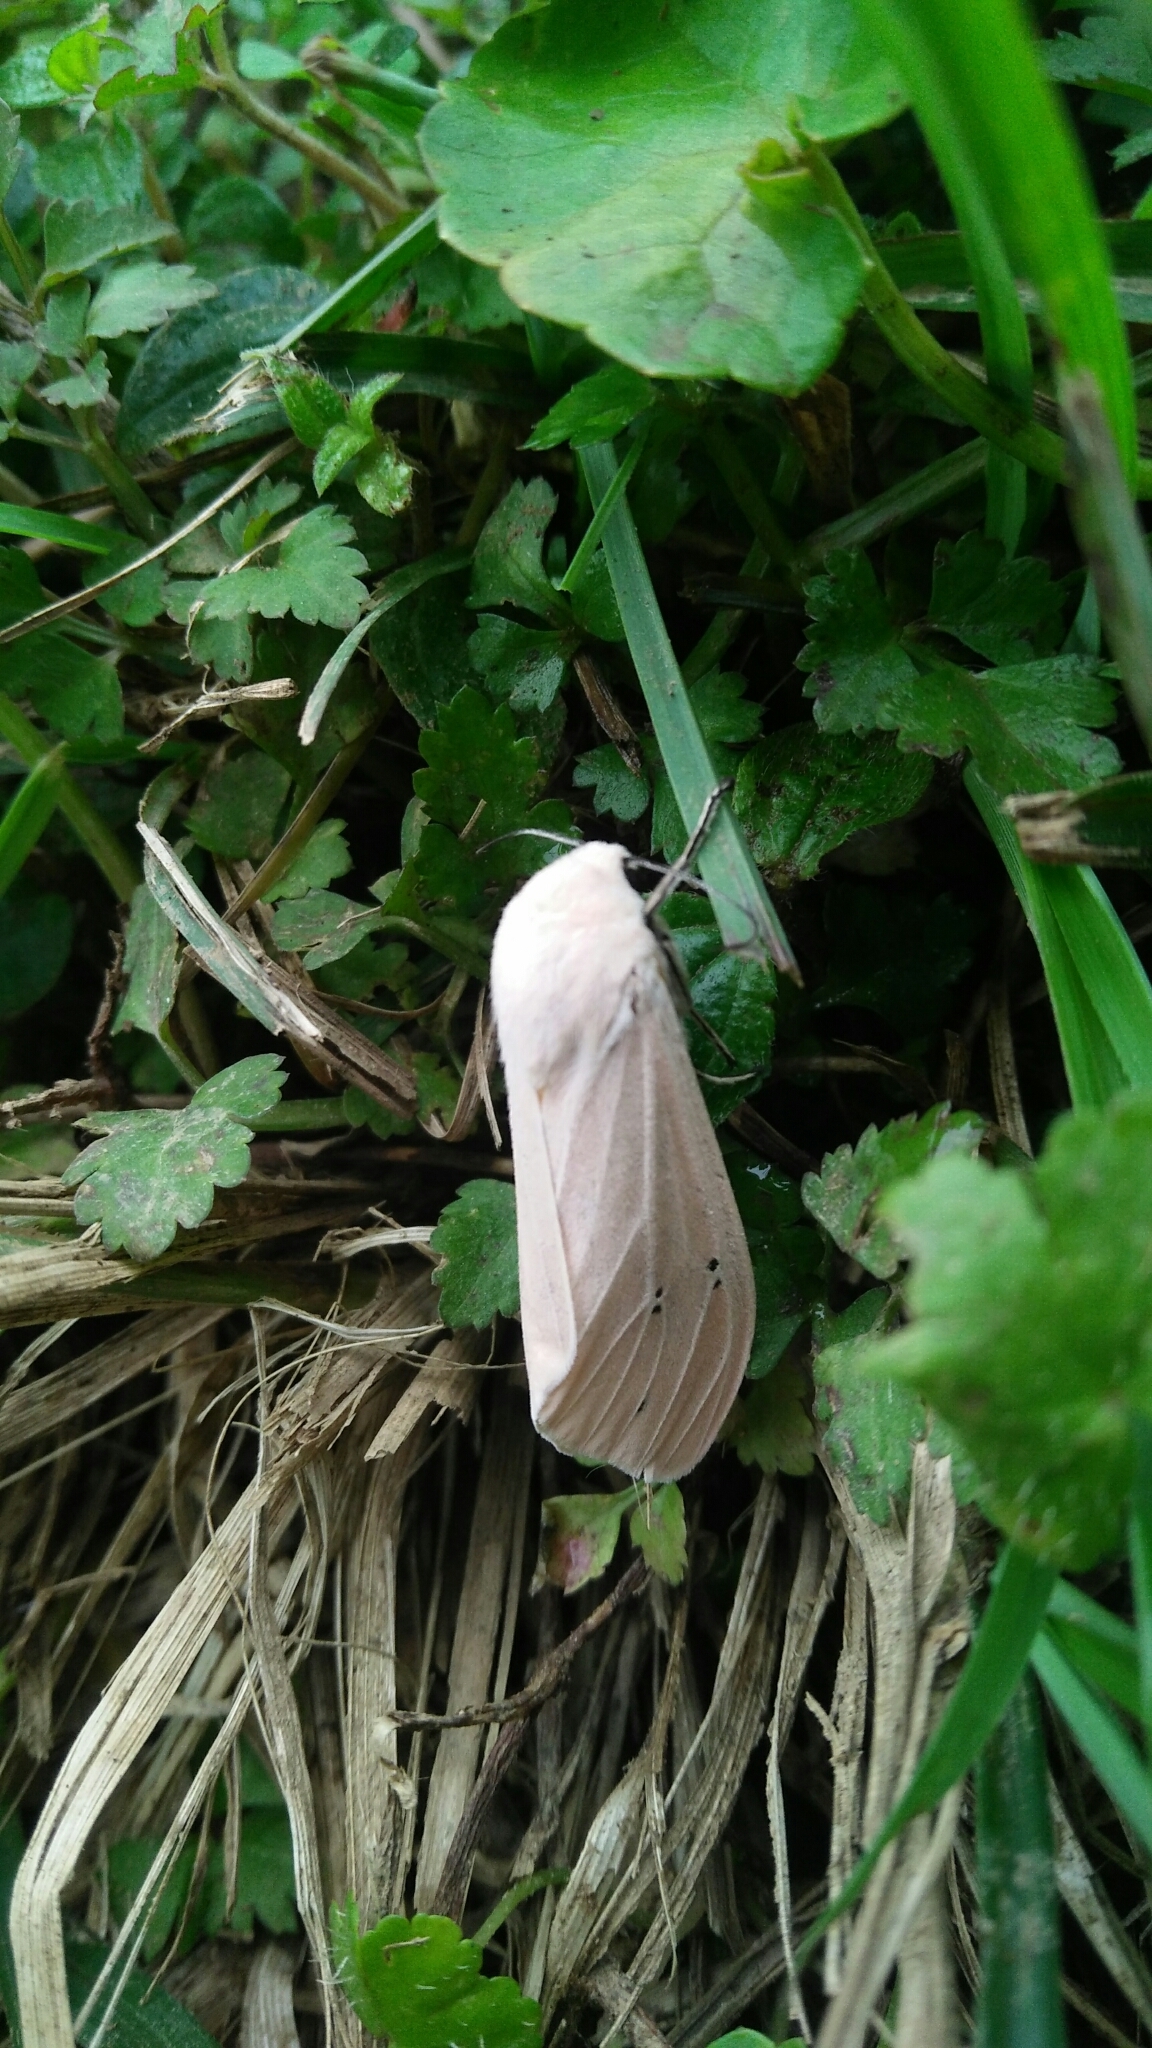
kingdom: Animalia
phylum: Arthropoda
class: Insecta
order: Lepidoptera
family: Erebidae
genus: Creatonotos
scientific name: Creatonotos transiens
